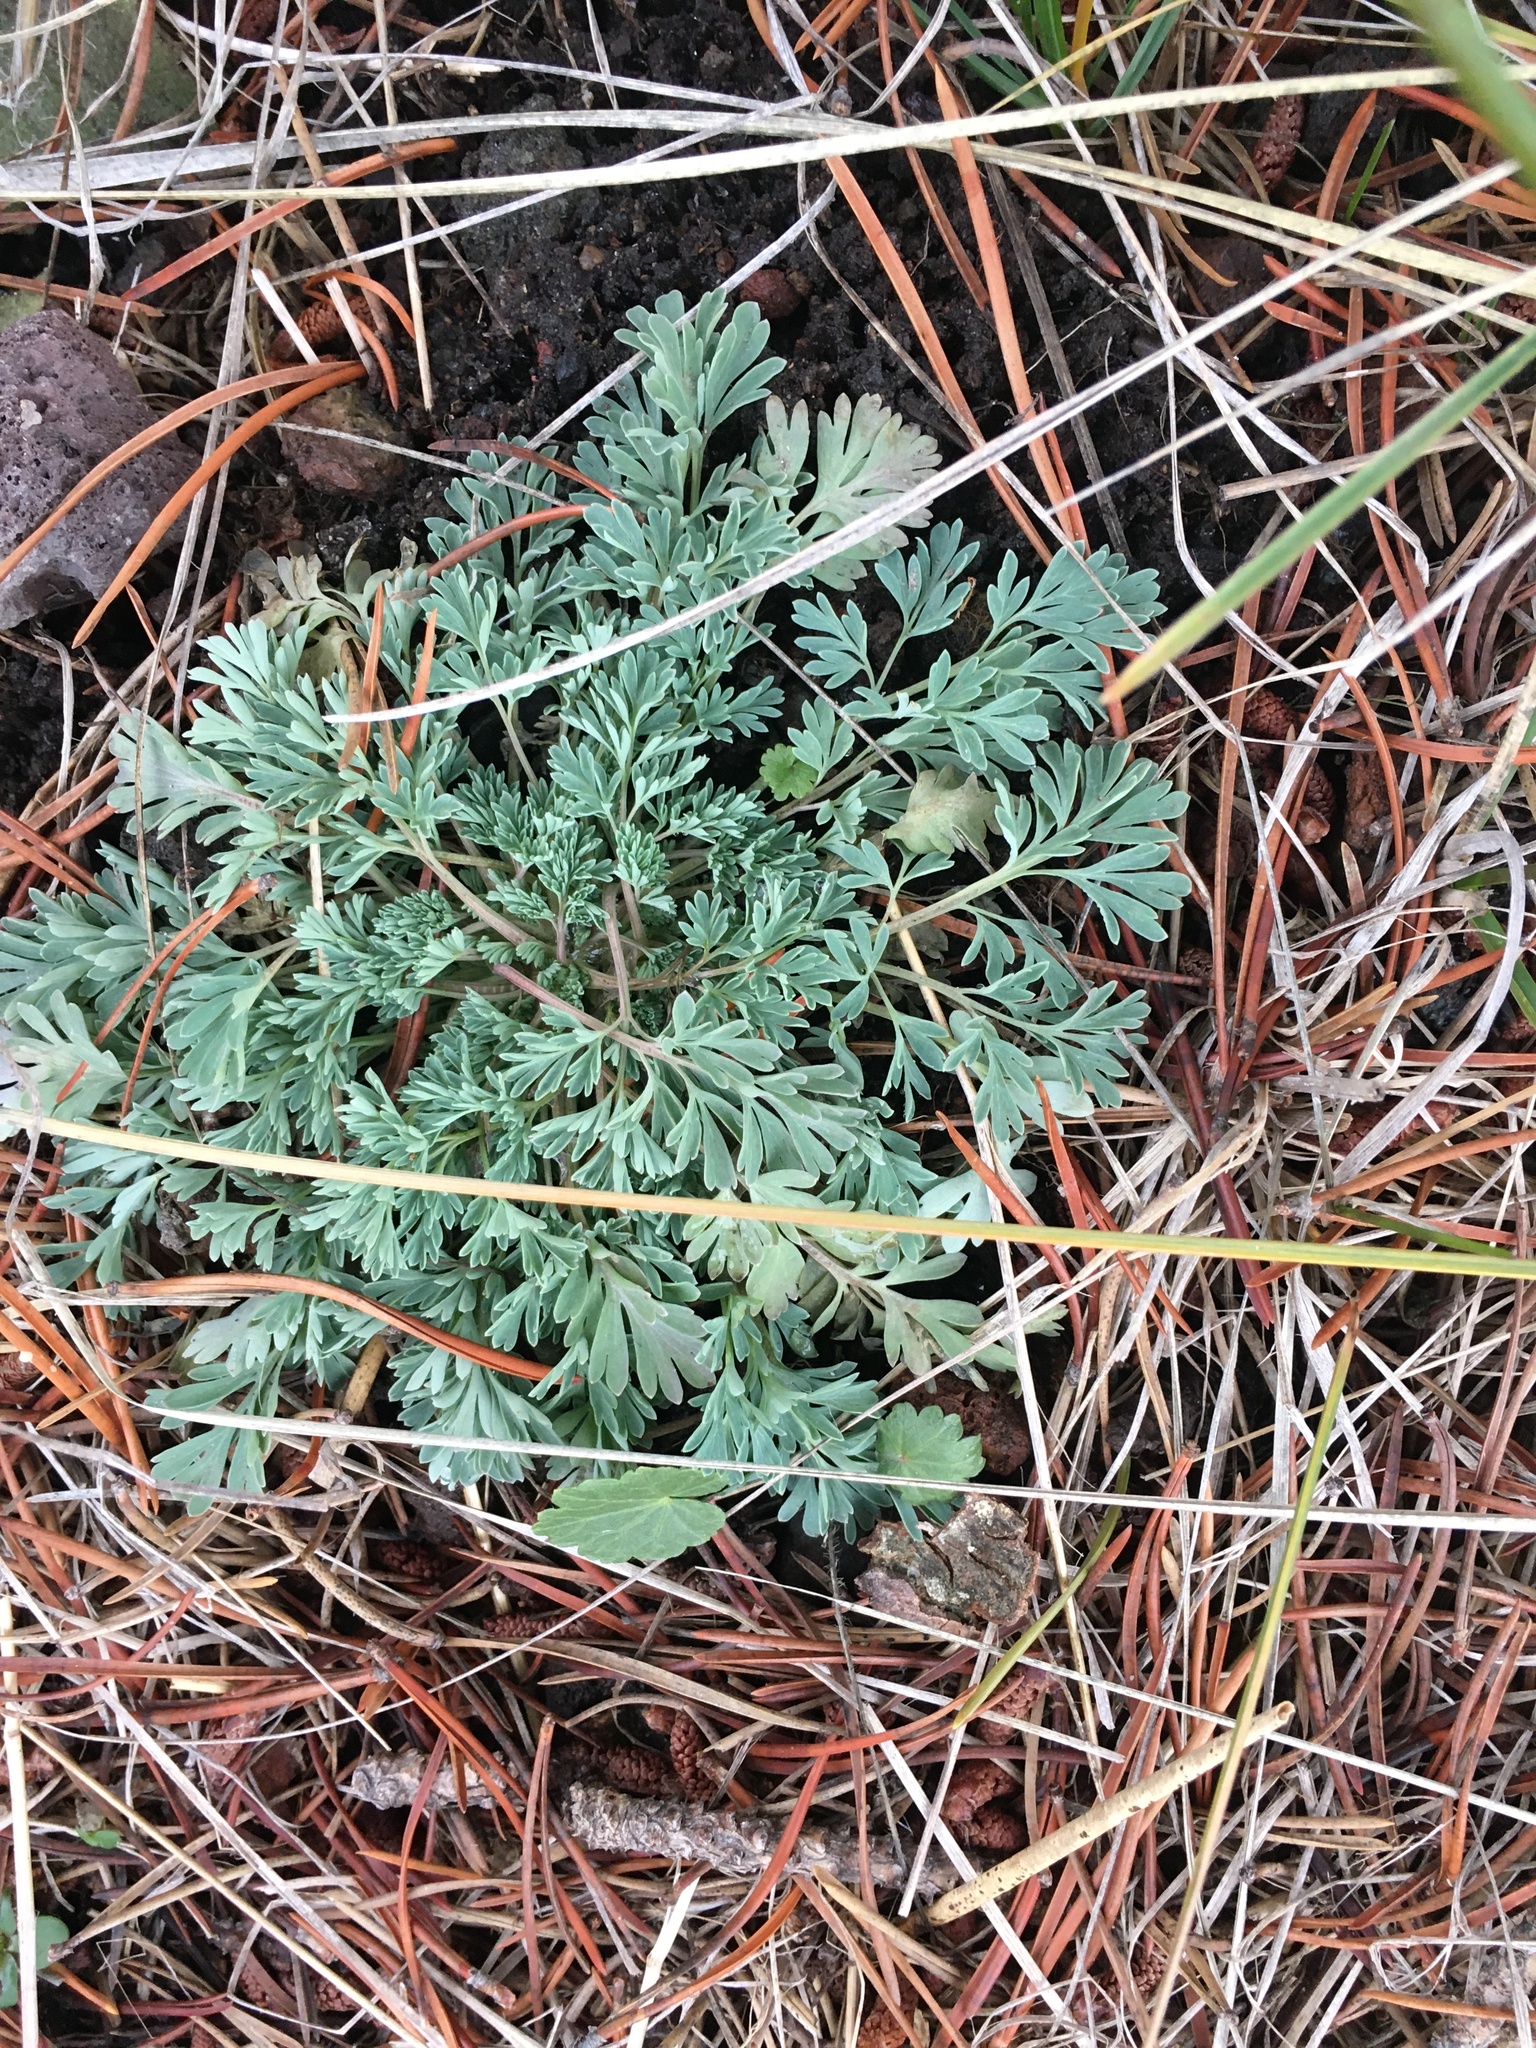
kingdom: Plantae
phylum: Tracheophyta
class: Magnoliopsida
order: Saxifragales
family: Paeoniaceae
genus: Paeonia
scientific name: Paeonia brownii
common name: Brown's peony
